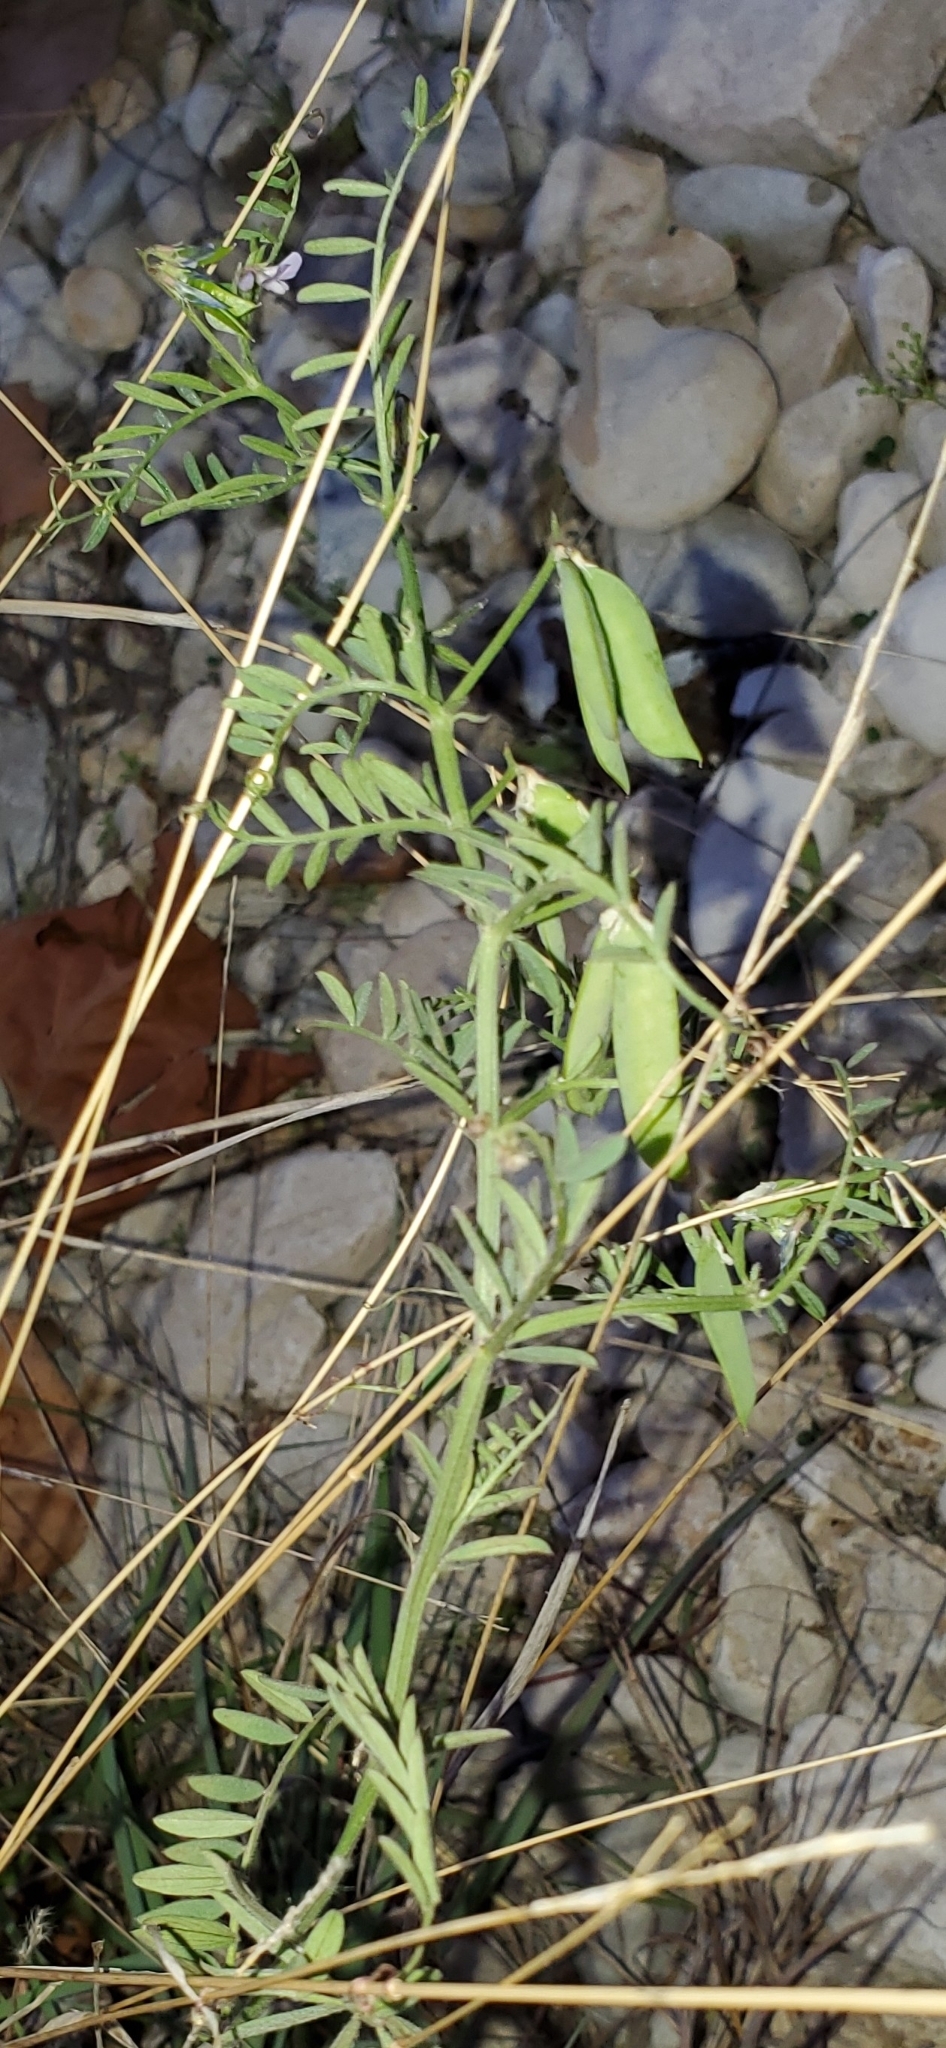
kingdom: Plantae
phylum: Tracheophyta
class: Magnoliopsida
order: Fabales
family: Fabaceae
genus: Vicia
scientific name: Vicia ludoviciana
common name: Louisiana vetch
